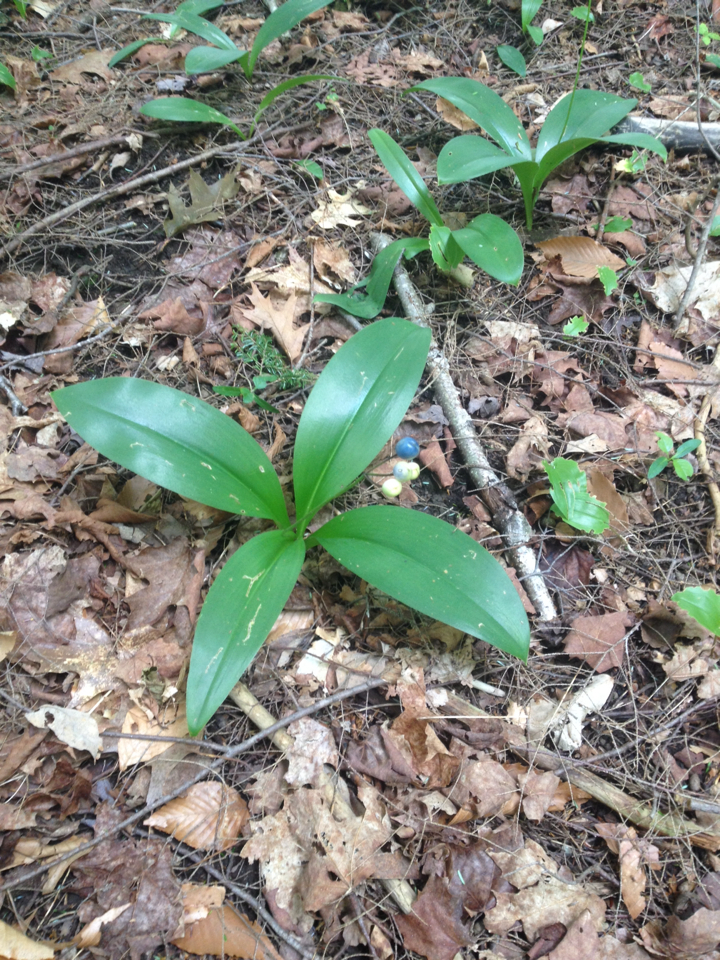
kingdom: Plantae
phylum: Tracheophyta
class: Liliopsida
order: Liliales
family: Liliaceae
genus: Clintonia
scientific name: Clintonia borealis
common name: Yellow clintonia
